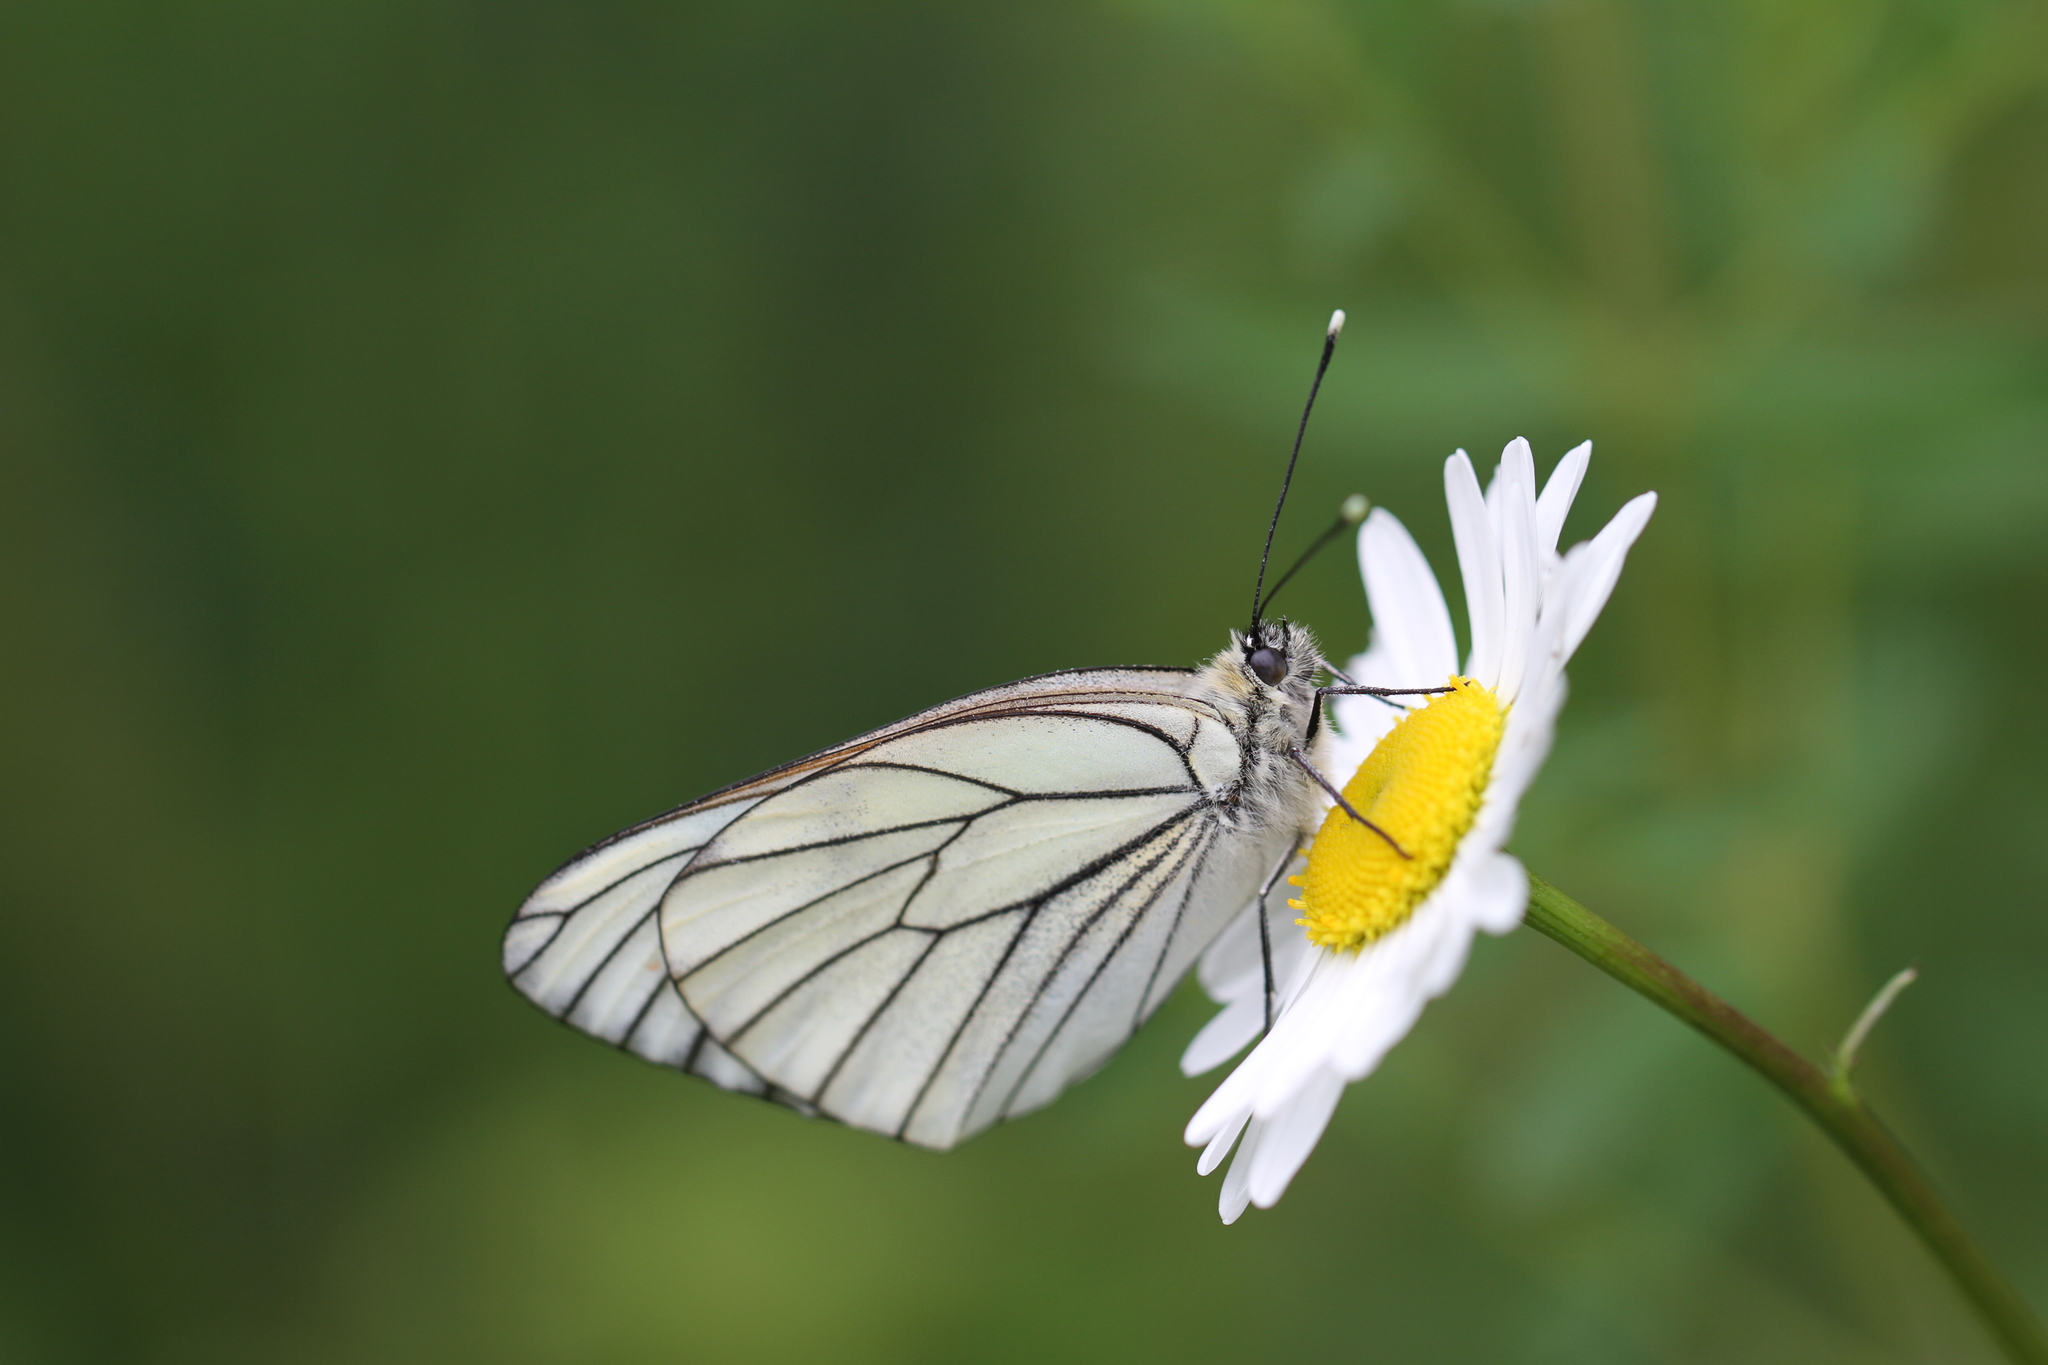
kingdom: Animalia
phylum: Arthropoda
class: Insecta
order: Lepidoptera
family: Pieridae
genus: Aporia
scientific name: Aporia crataegi
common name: Black-veined white
